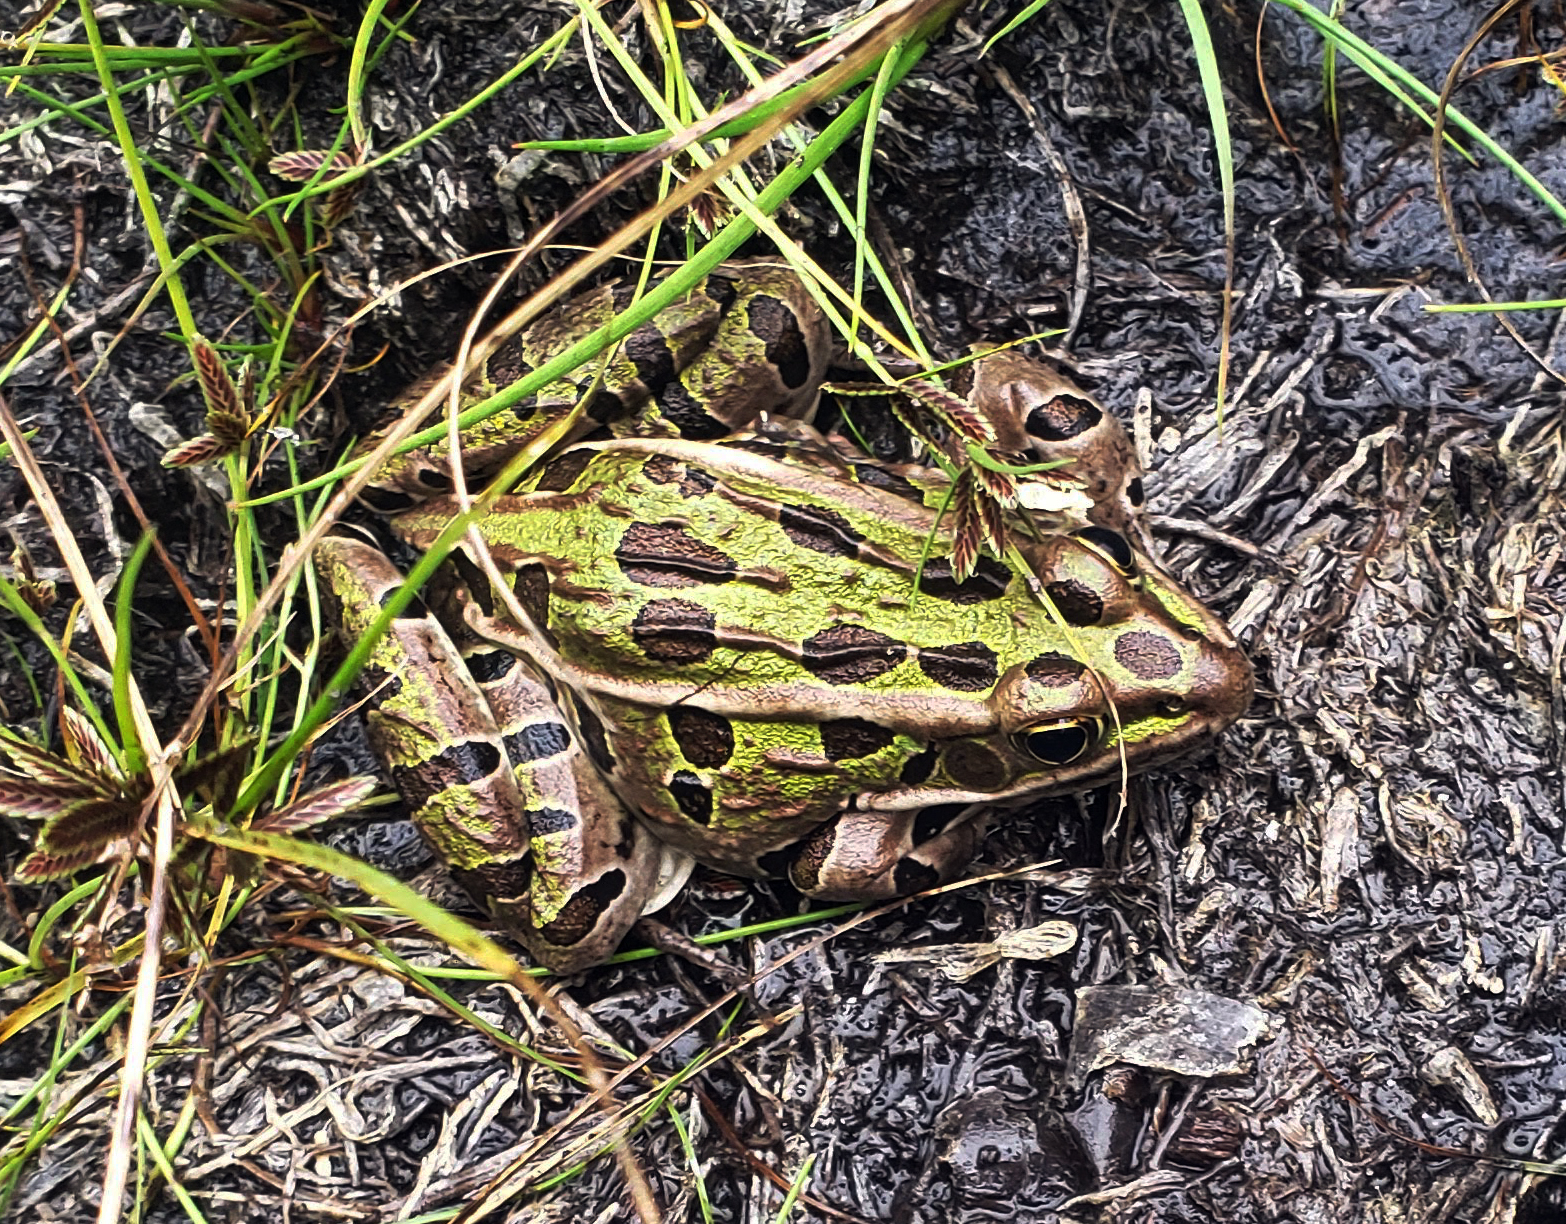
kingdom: Animalia
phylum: Chordata
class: Amphibia
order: Anura
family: Ranidae
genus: Lithobates
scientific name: Lithobates pipiens
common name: Northern leopard frog
